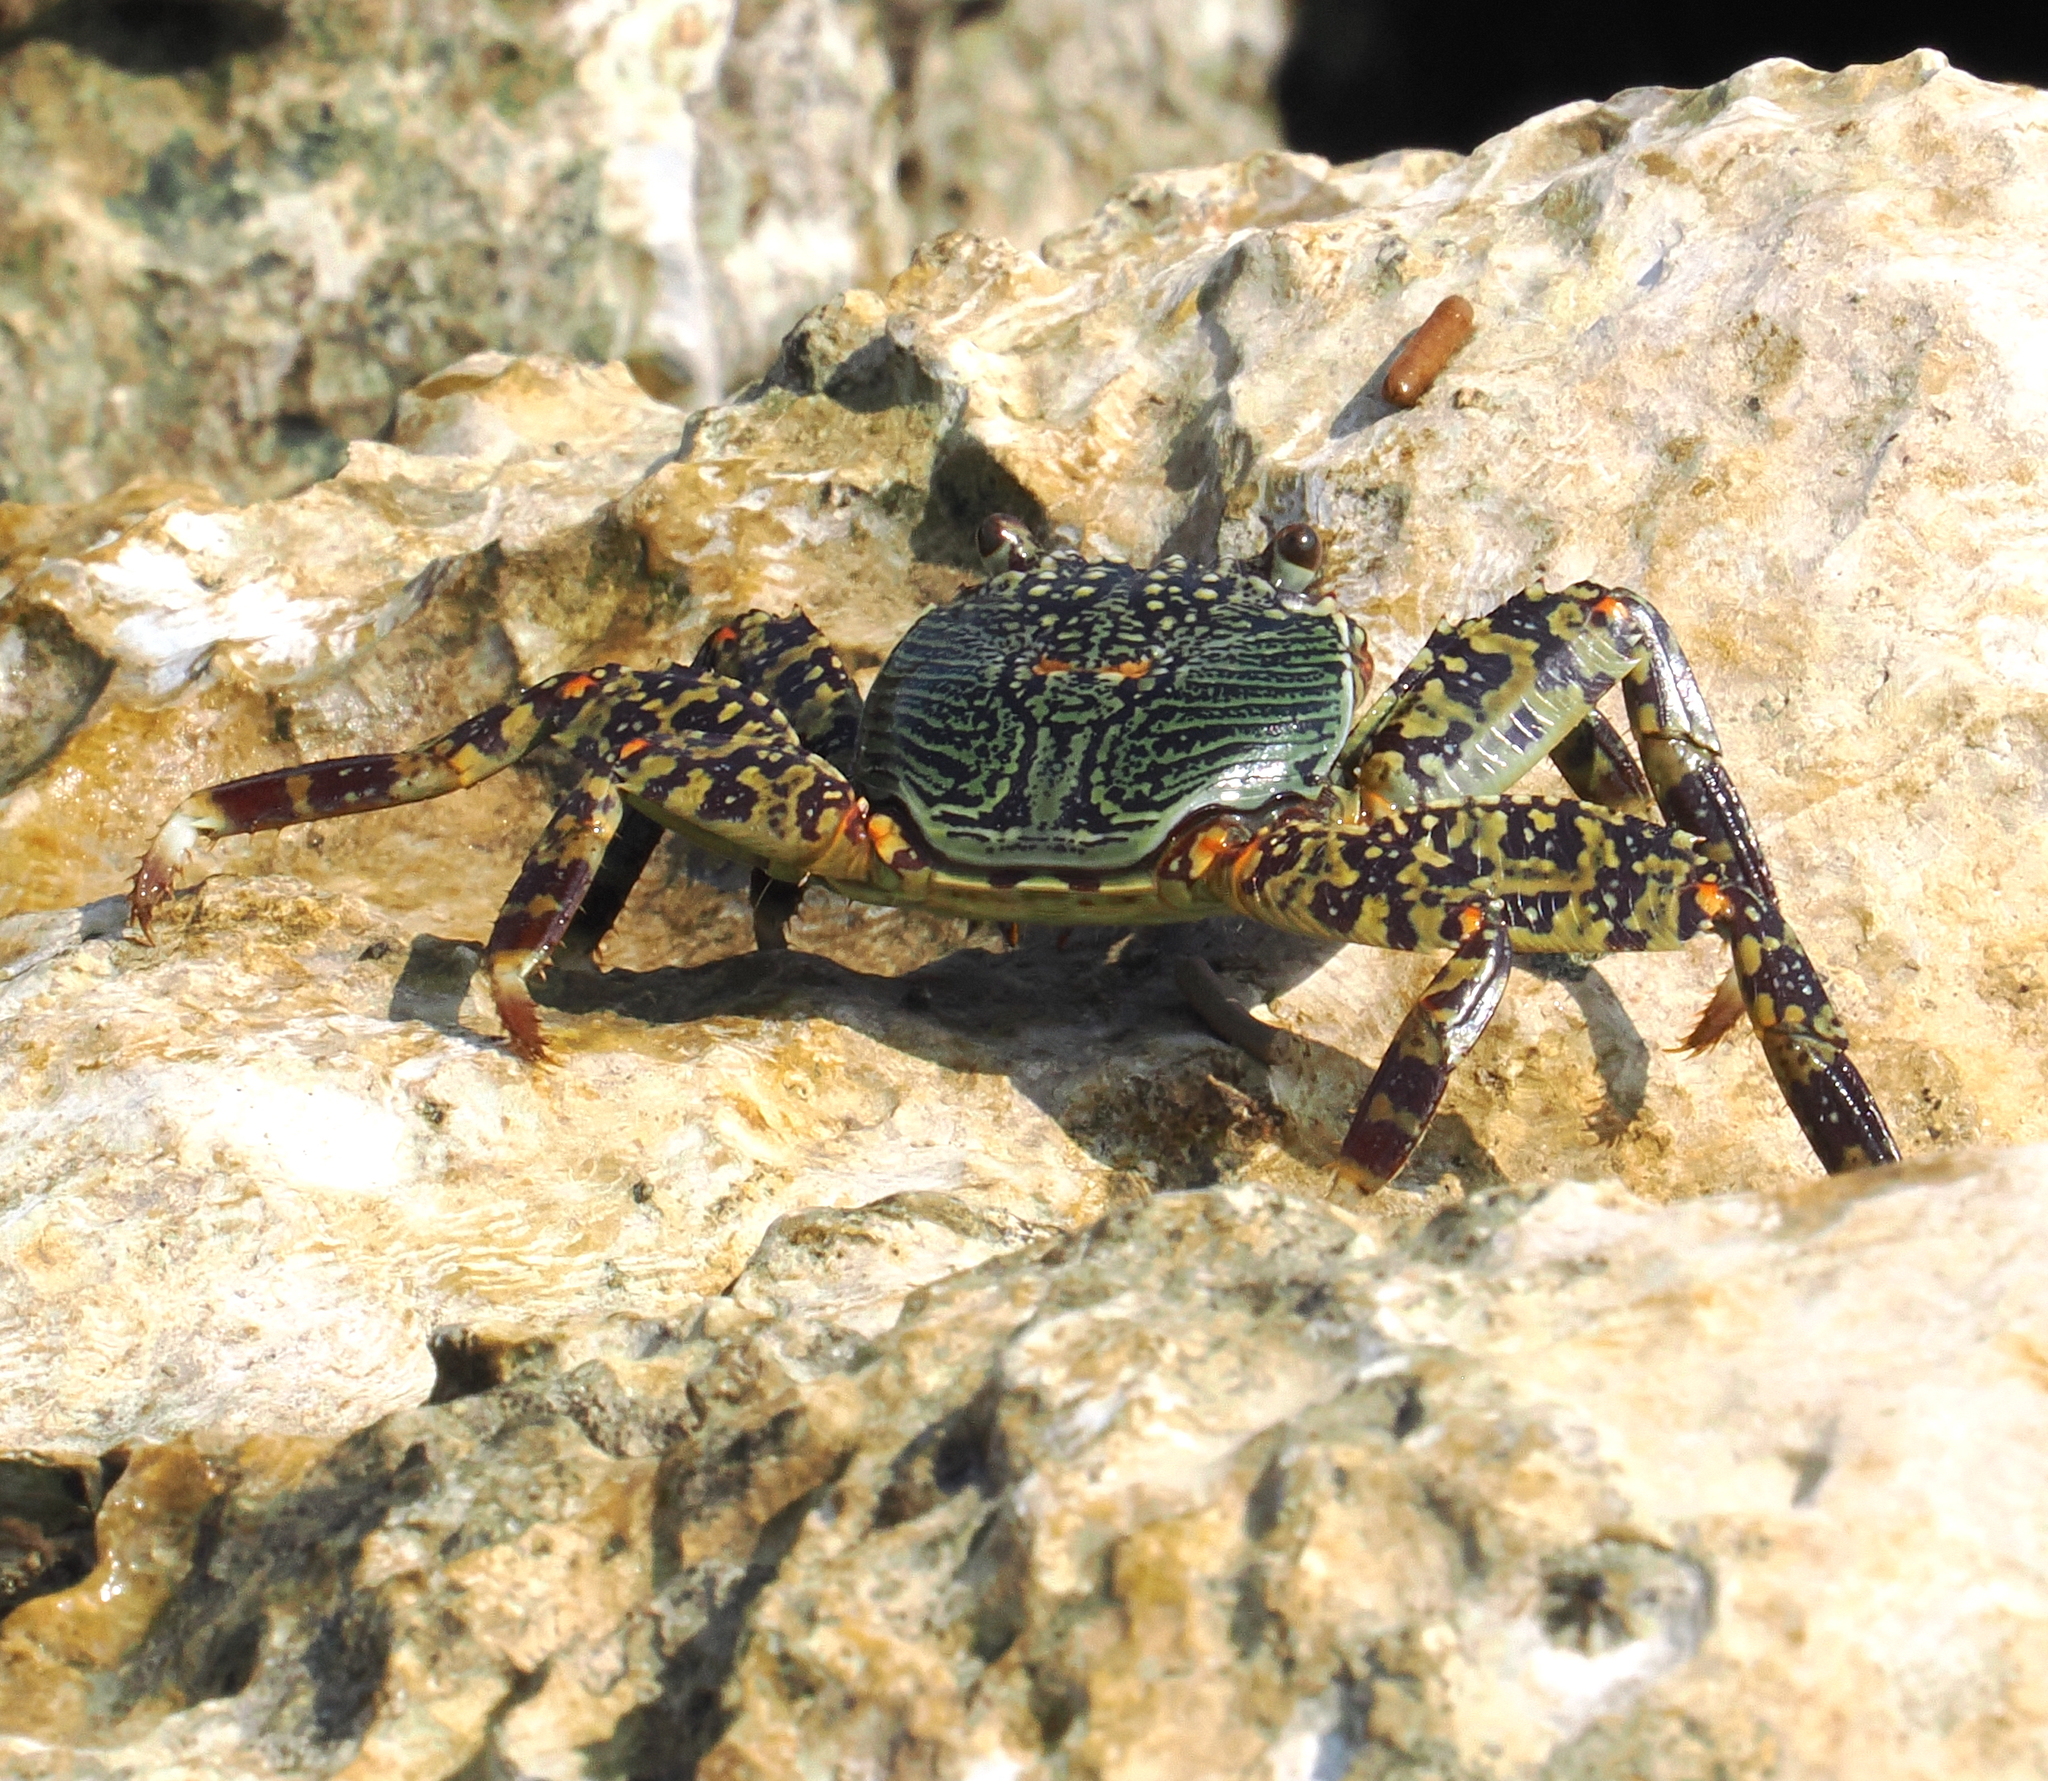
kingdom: Animalia
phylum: Arthropoda
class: Malacostraca
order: Decapoda
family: Grapsidae
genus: Grapsus
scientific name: Grapsus albolineatus
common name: Mottled lightfoot crab
